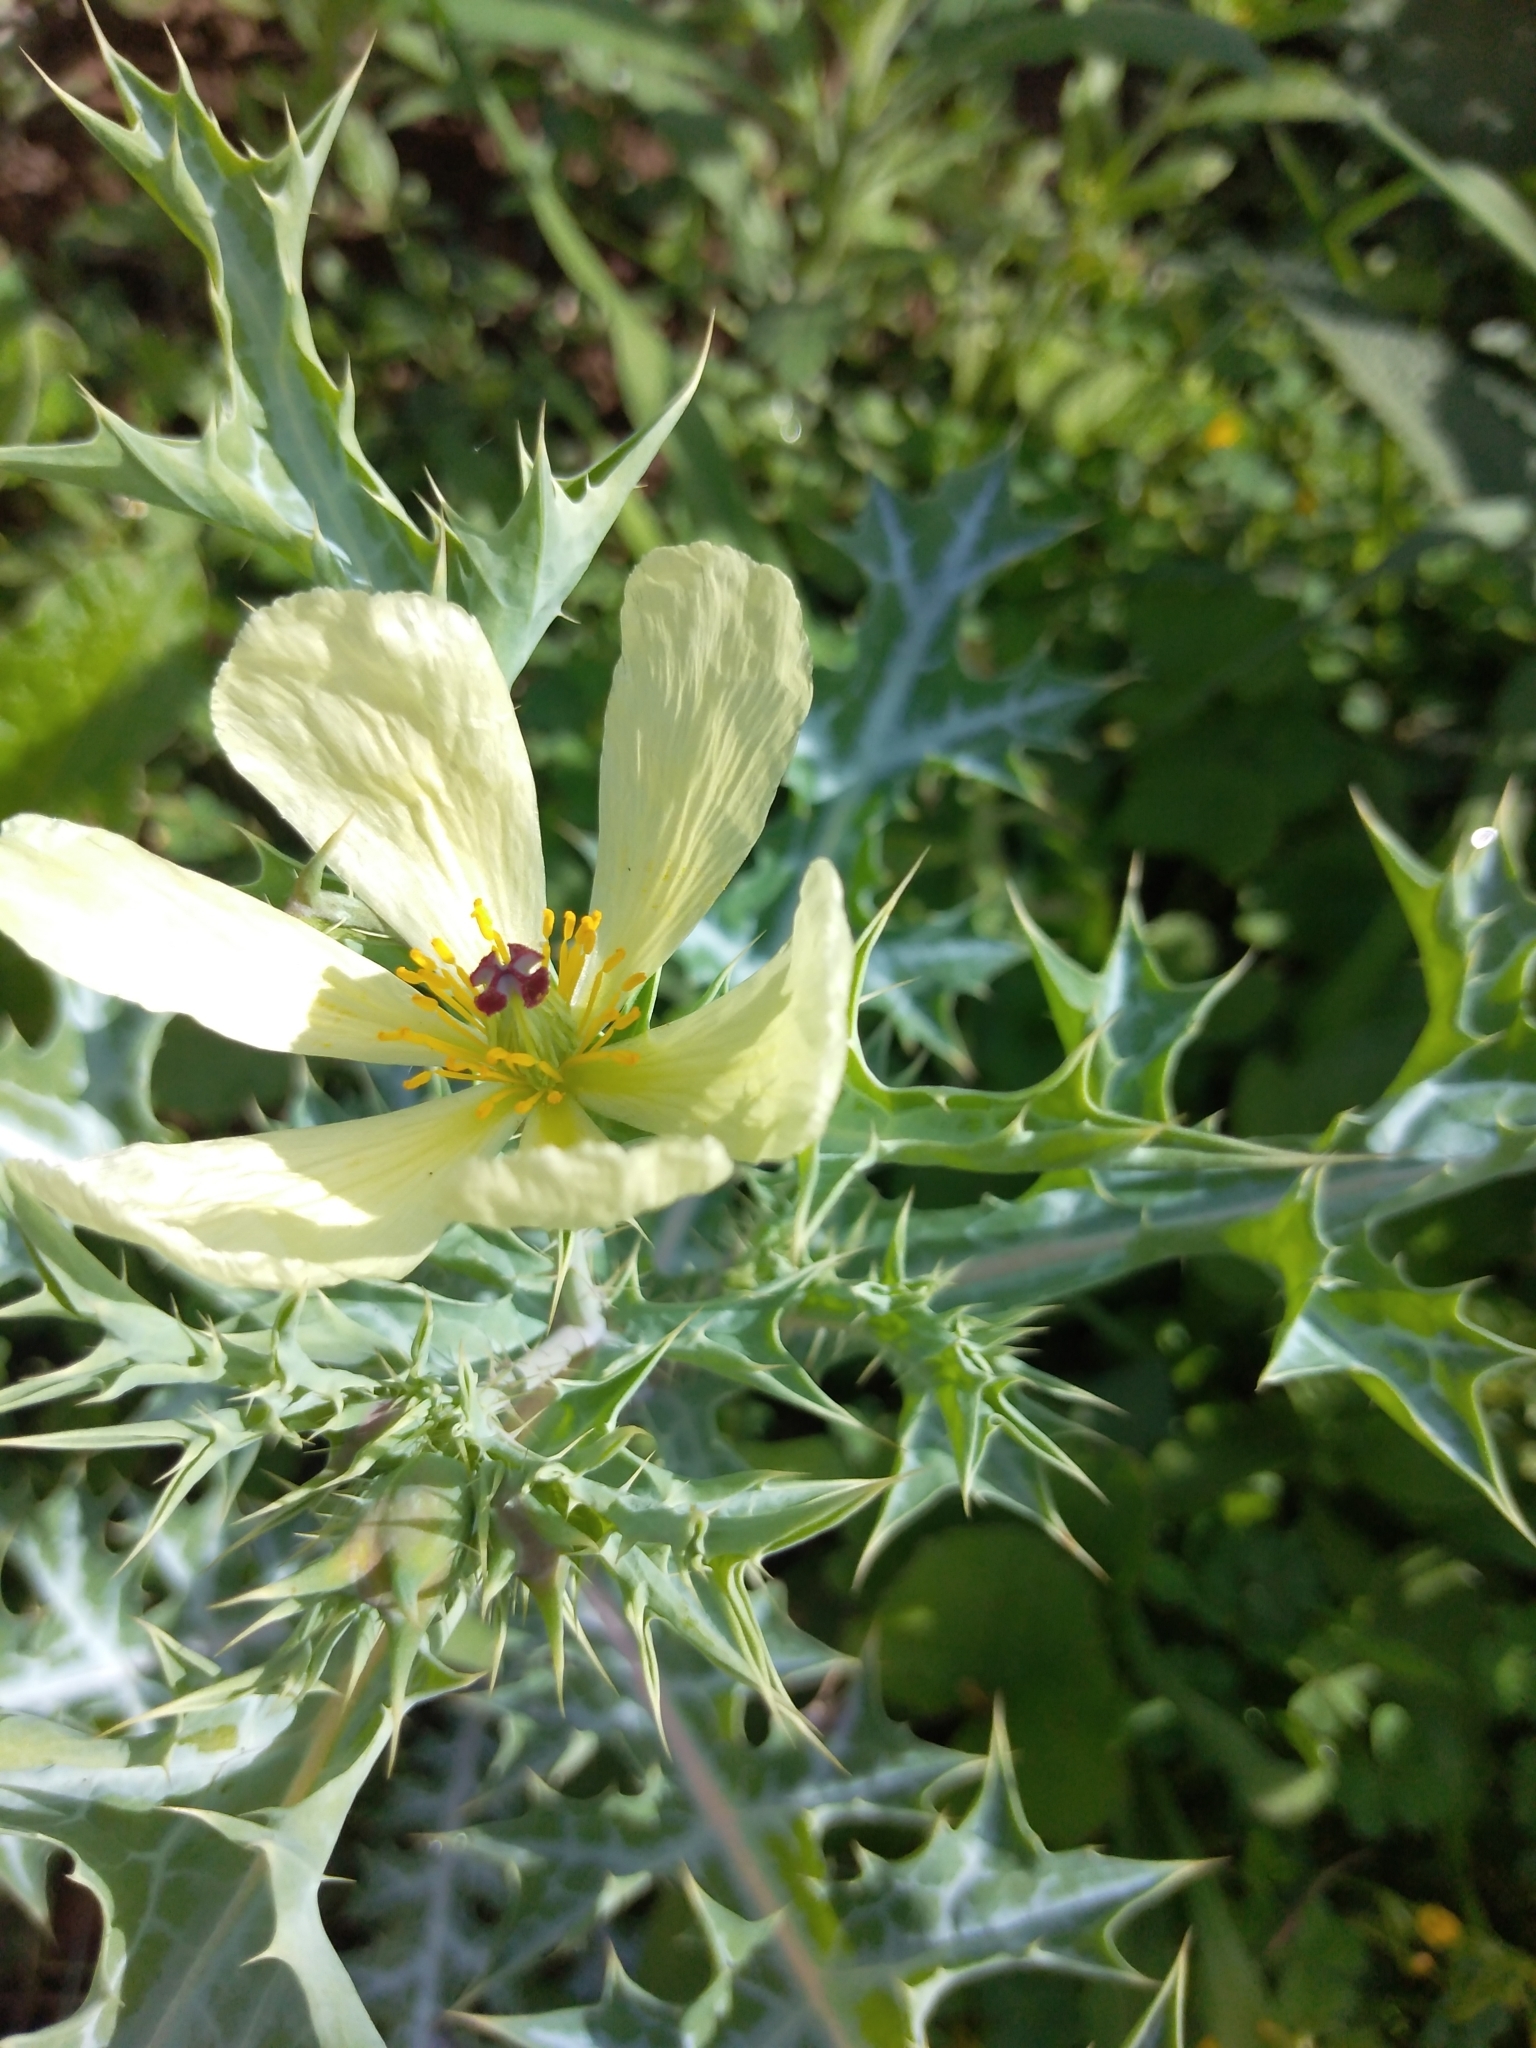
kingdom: Plantae
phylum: Tracheophyta
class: Magnoliopsida
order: Ranunculales
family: Papaveraceae
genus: Argemone
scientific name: Argemone ochroleuca
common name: White-flower mexican-poppy
